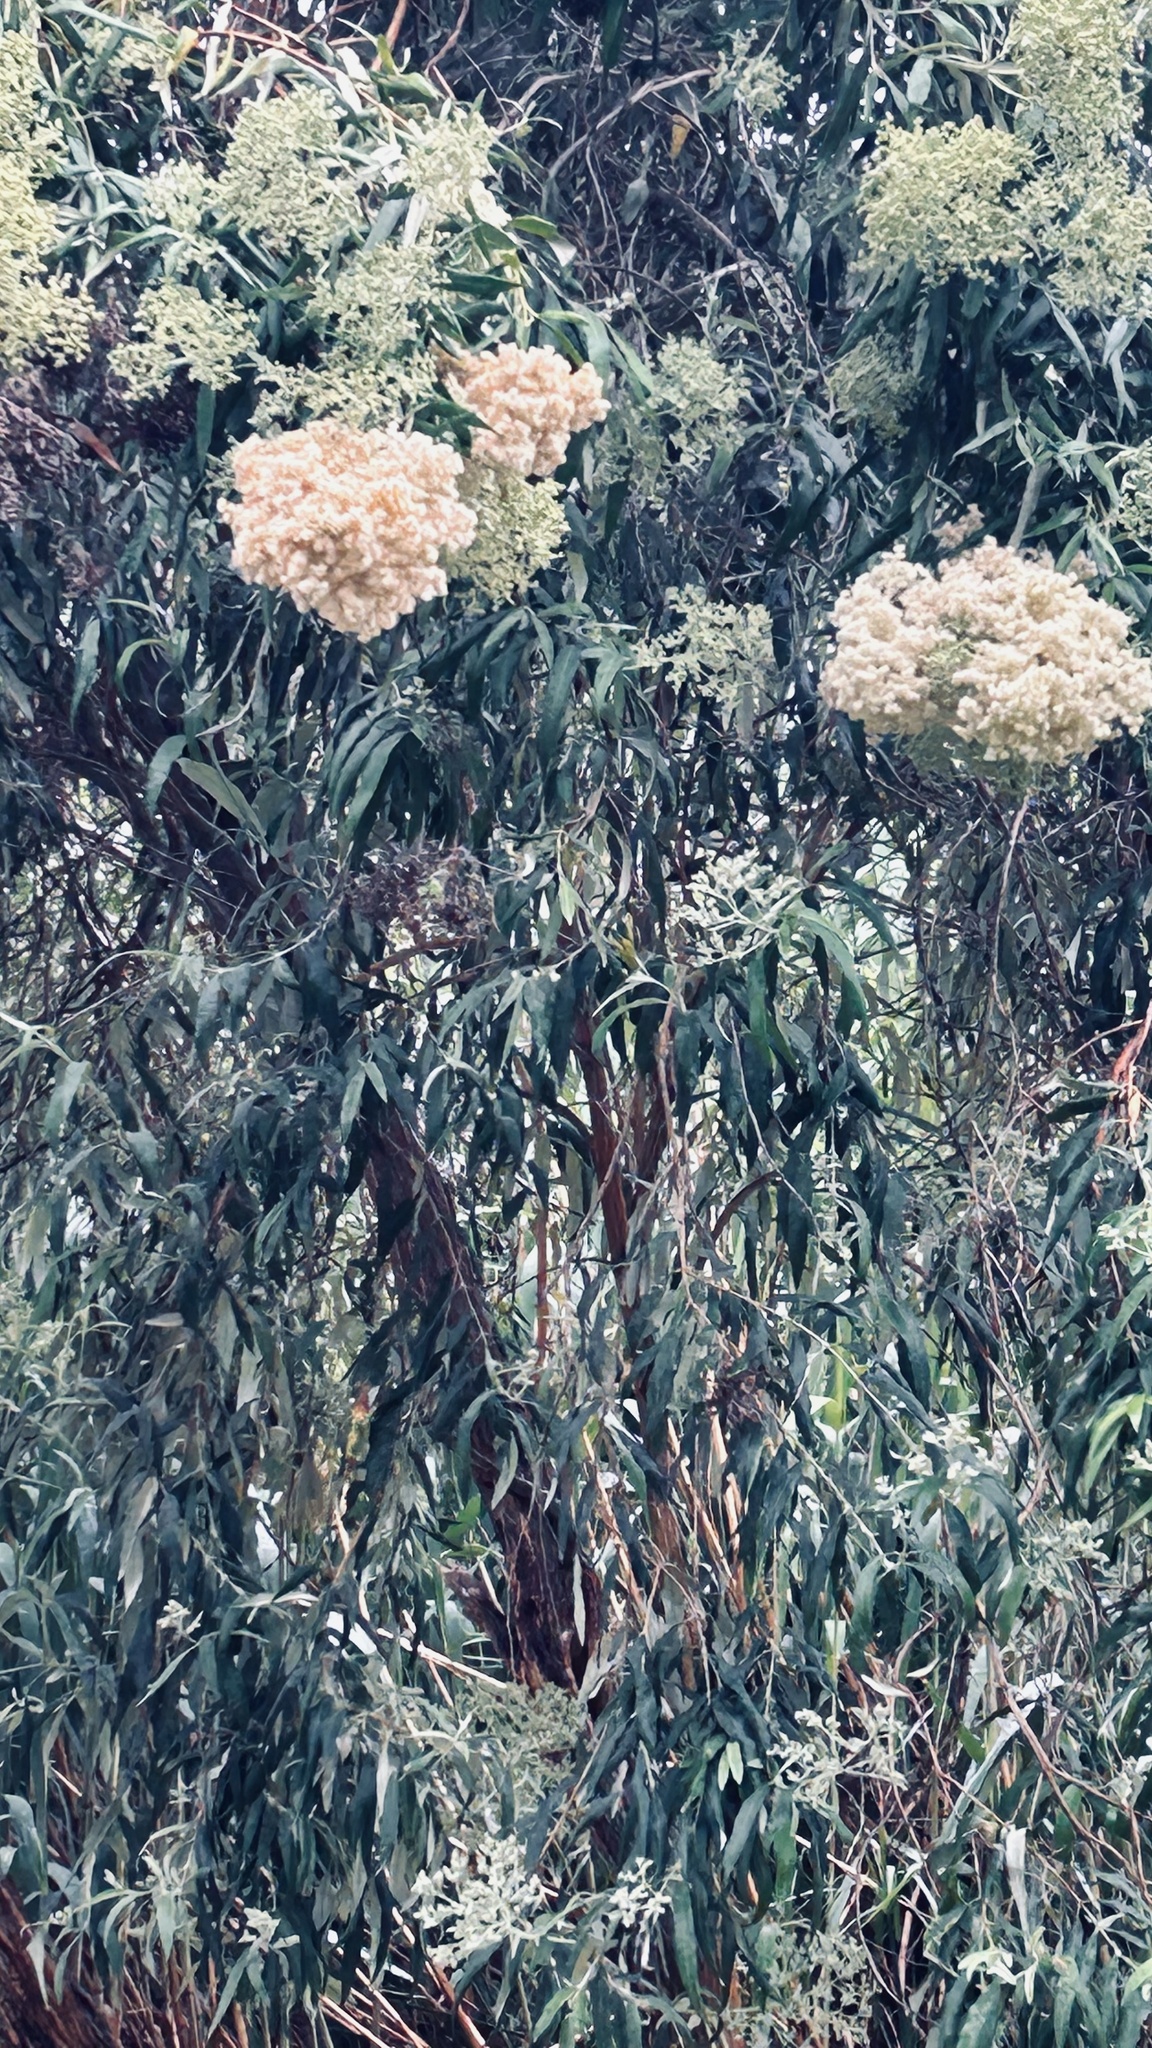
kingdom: Plantae
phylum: Tracheophyta
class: Magnoliopsida
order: Lamiales
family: Scrophulariaceae
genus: Buddleja
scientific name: Buddleja saligna
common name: False olive
